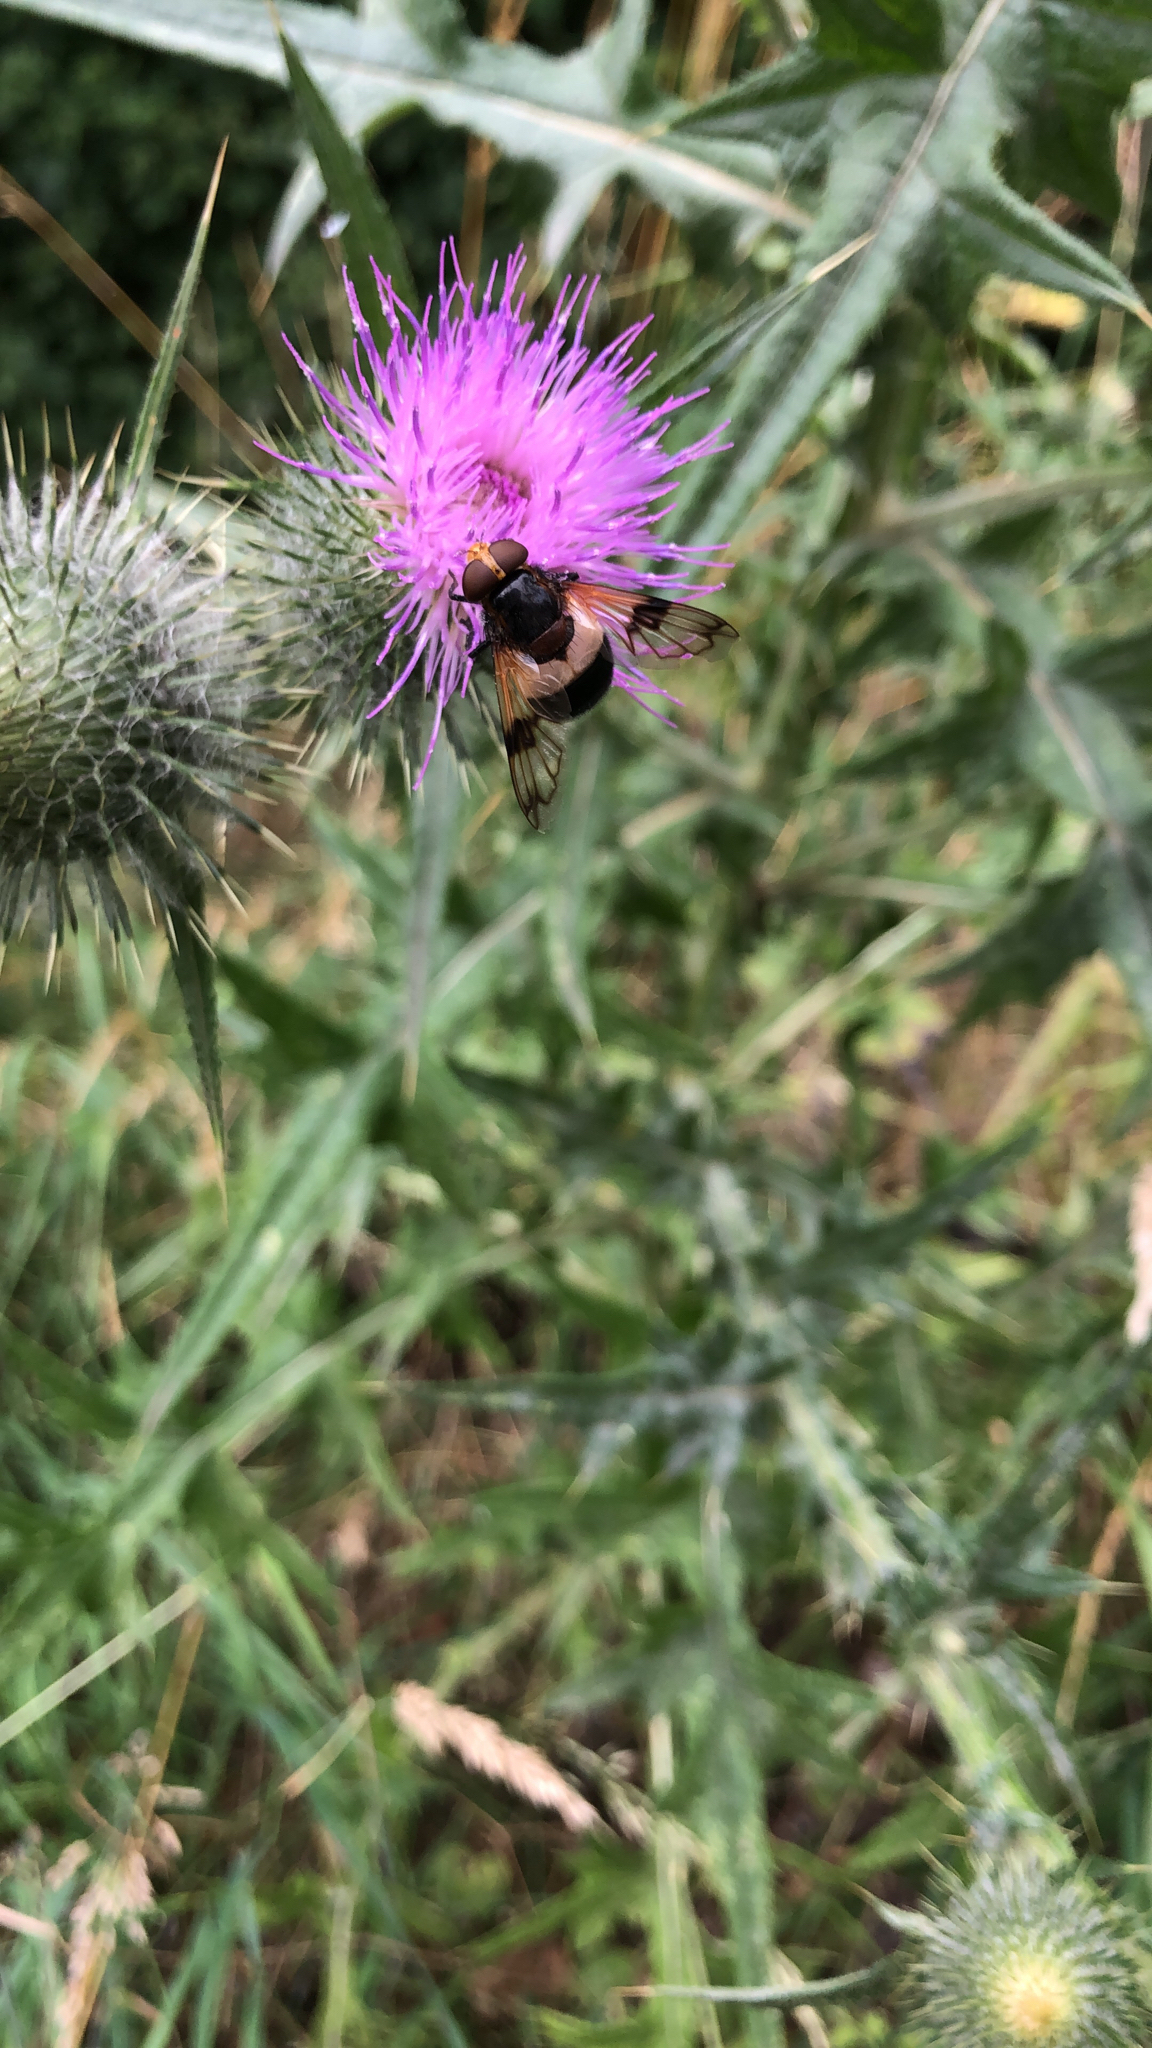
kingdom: Animalia
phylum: Arthropoda
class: Insecta
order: Diptera
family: Syrphidae
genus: Volucella
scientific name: Volucella pellucens
